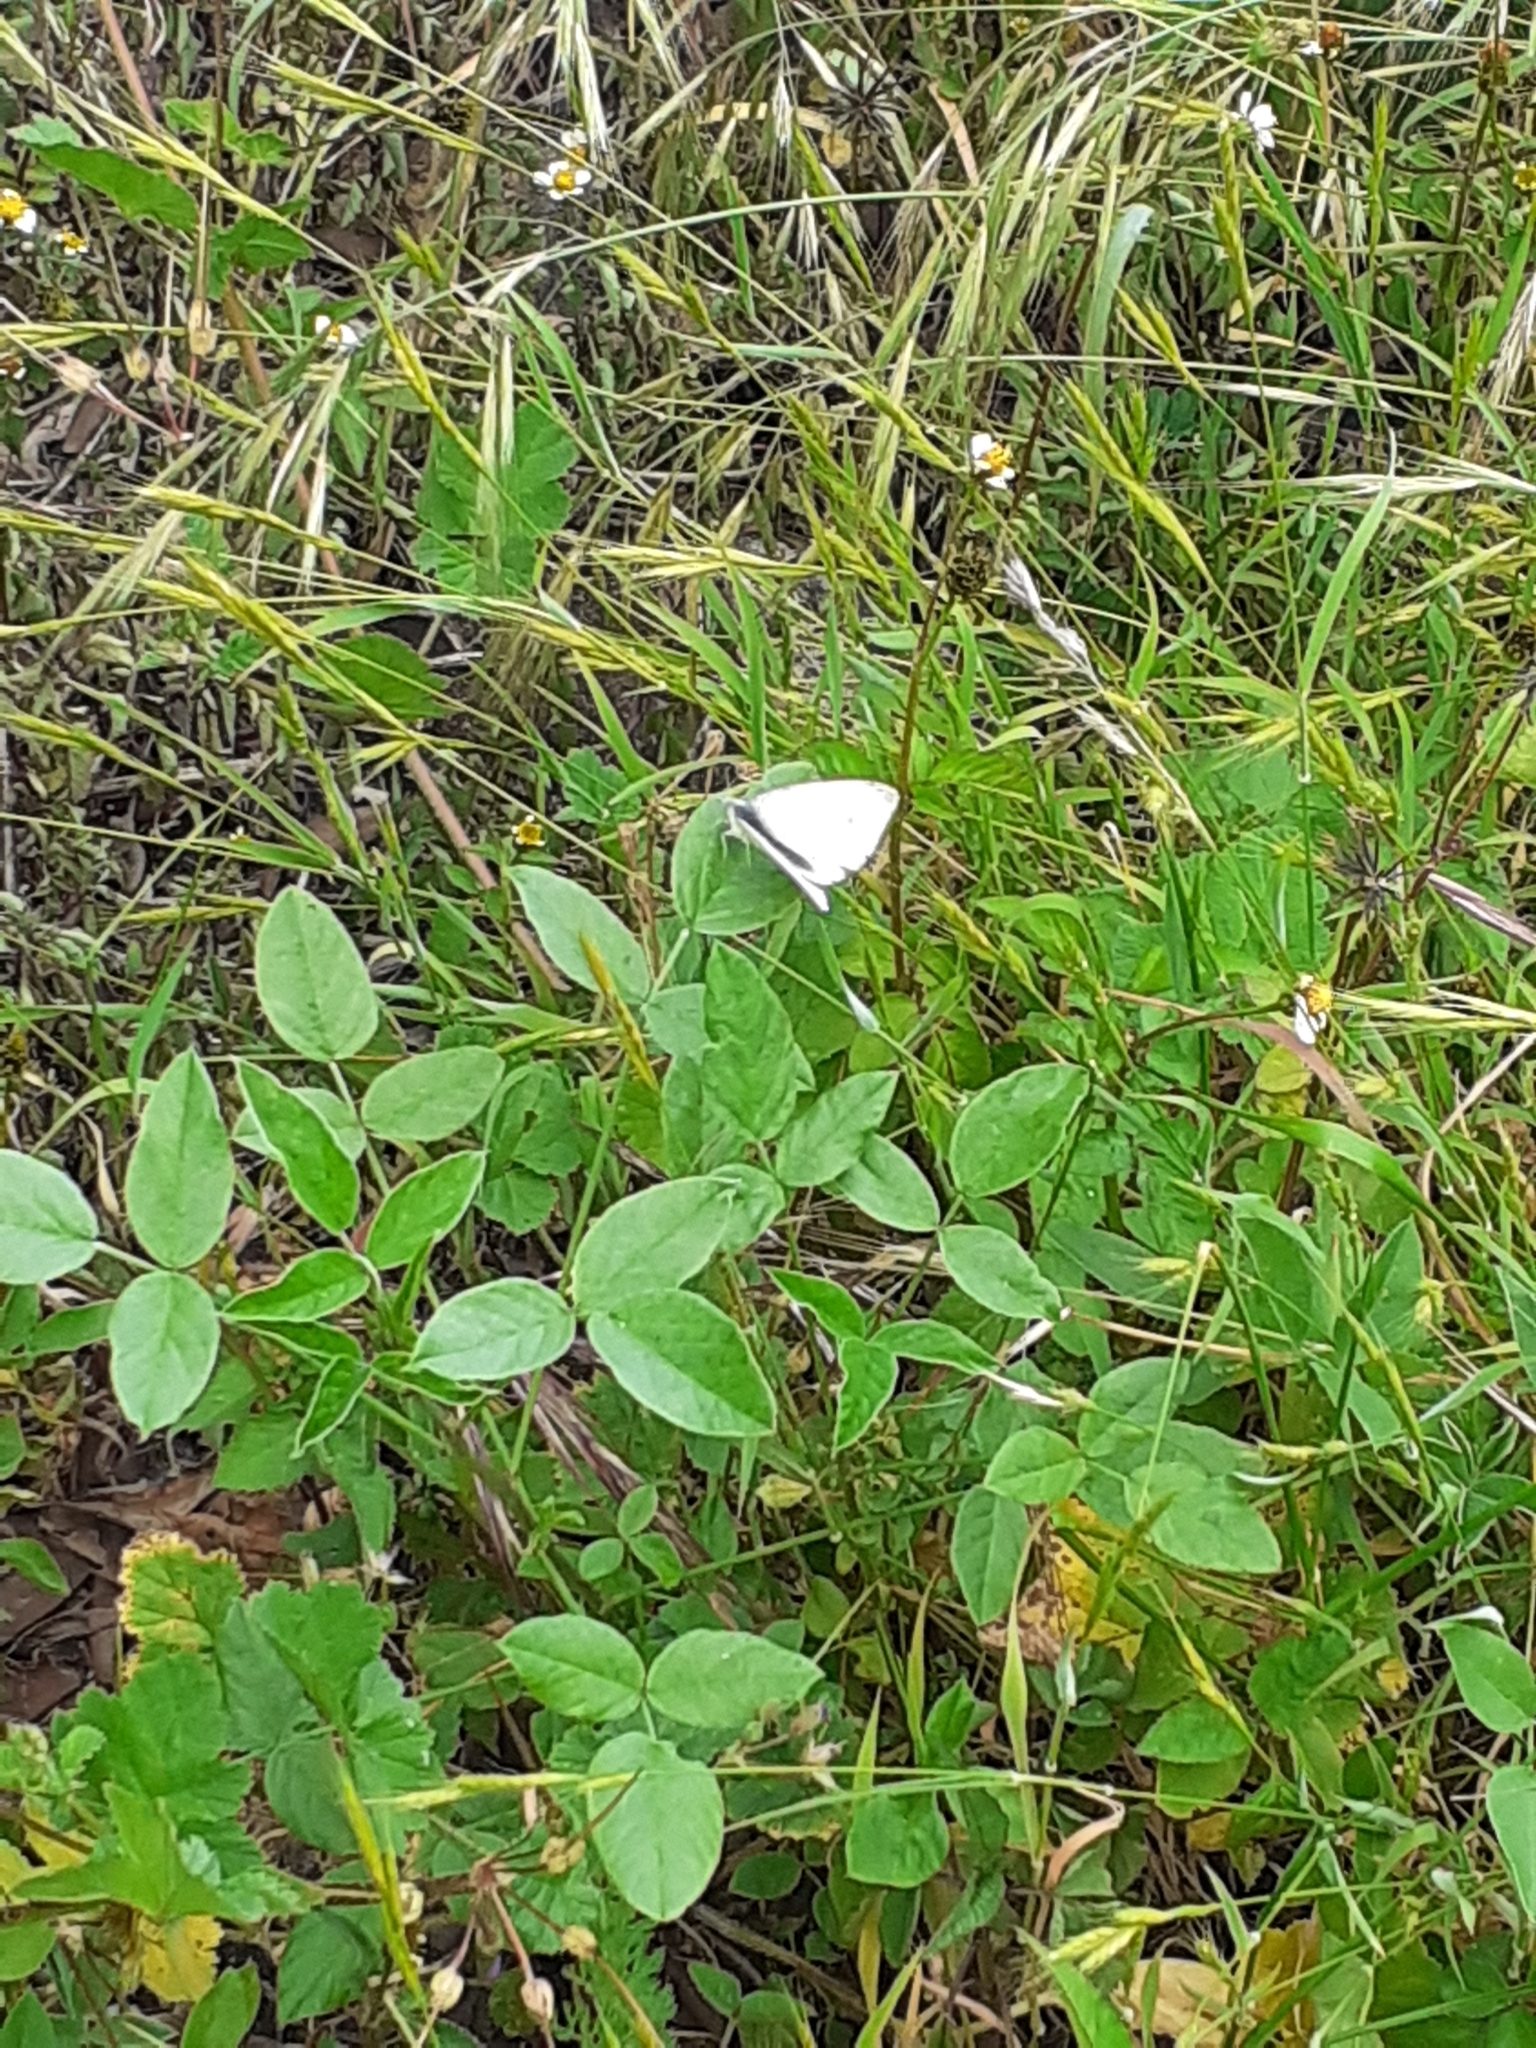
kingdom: Animalia
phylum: Arthropoda
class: Insecta
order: Lepidoptera
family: Pieridae
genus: Pieris
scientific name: Pieris rapae
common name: Small white
